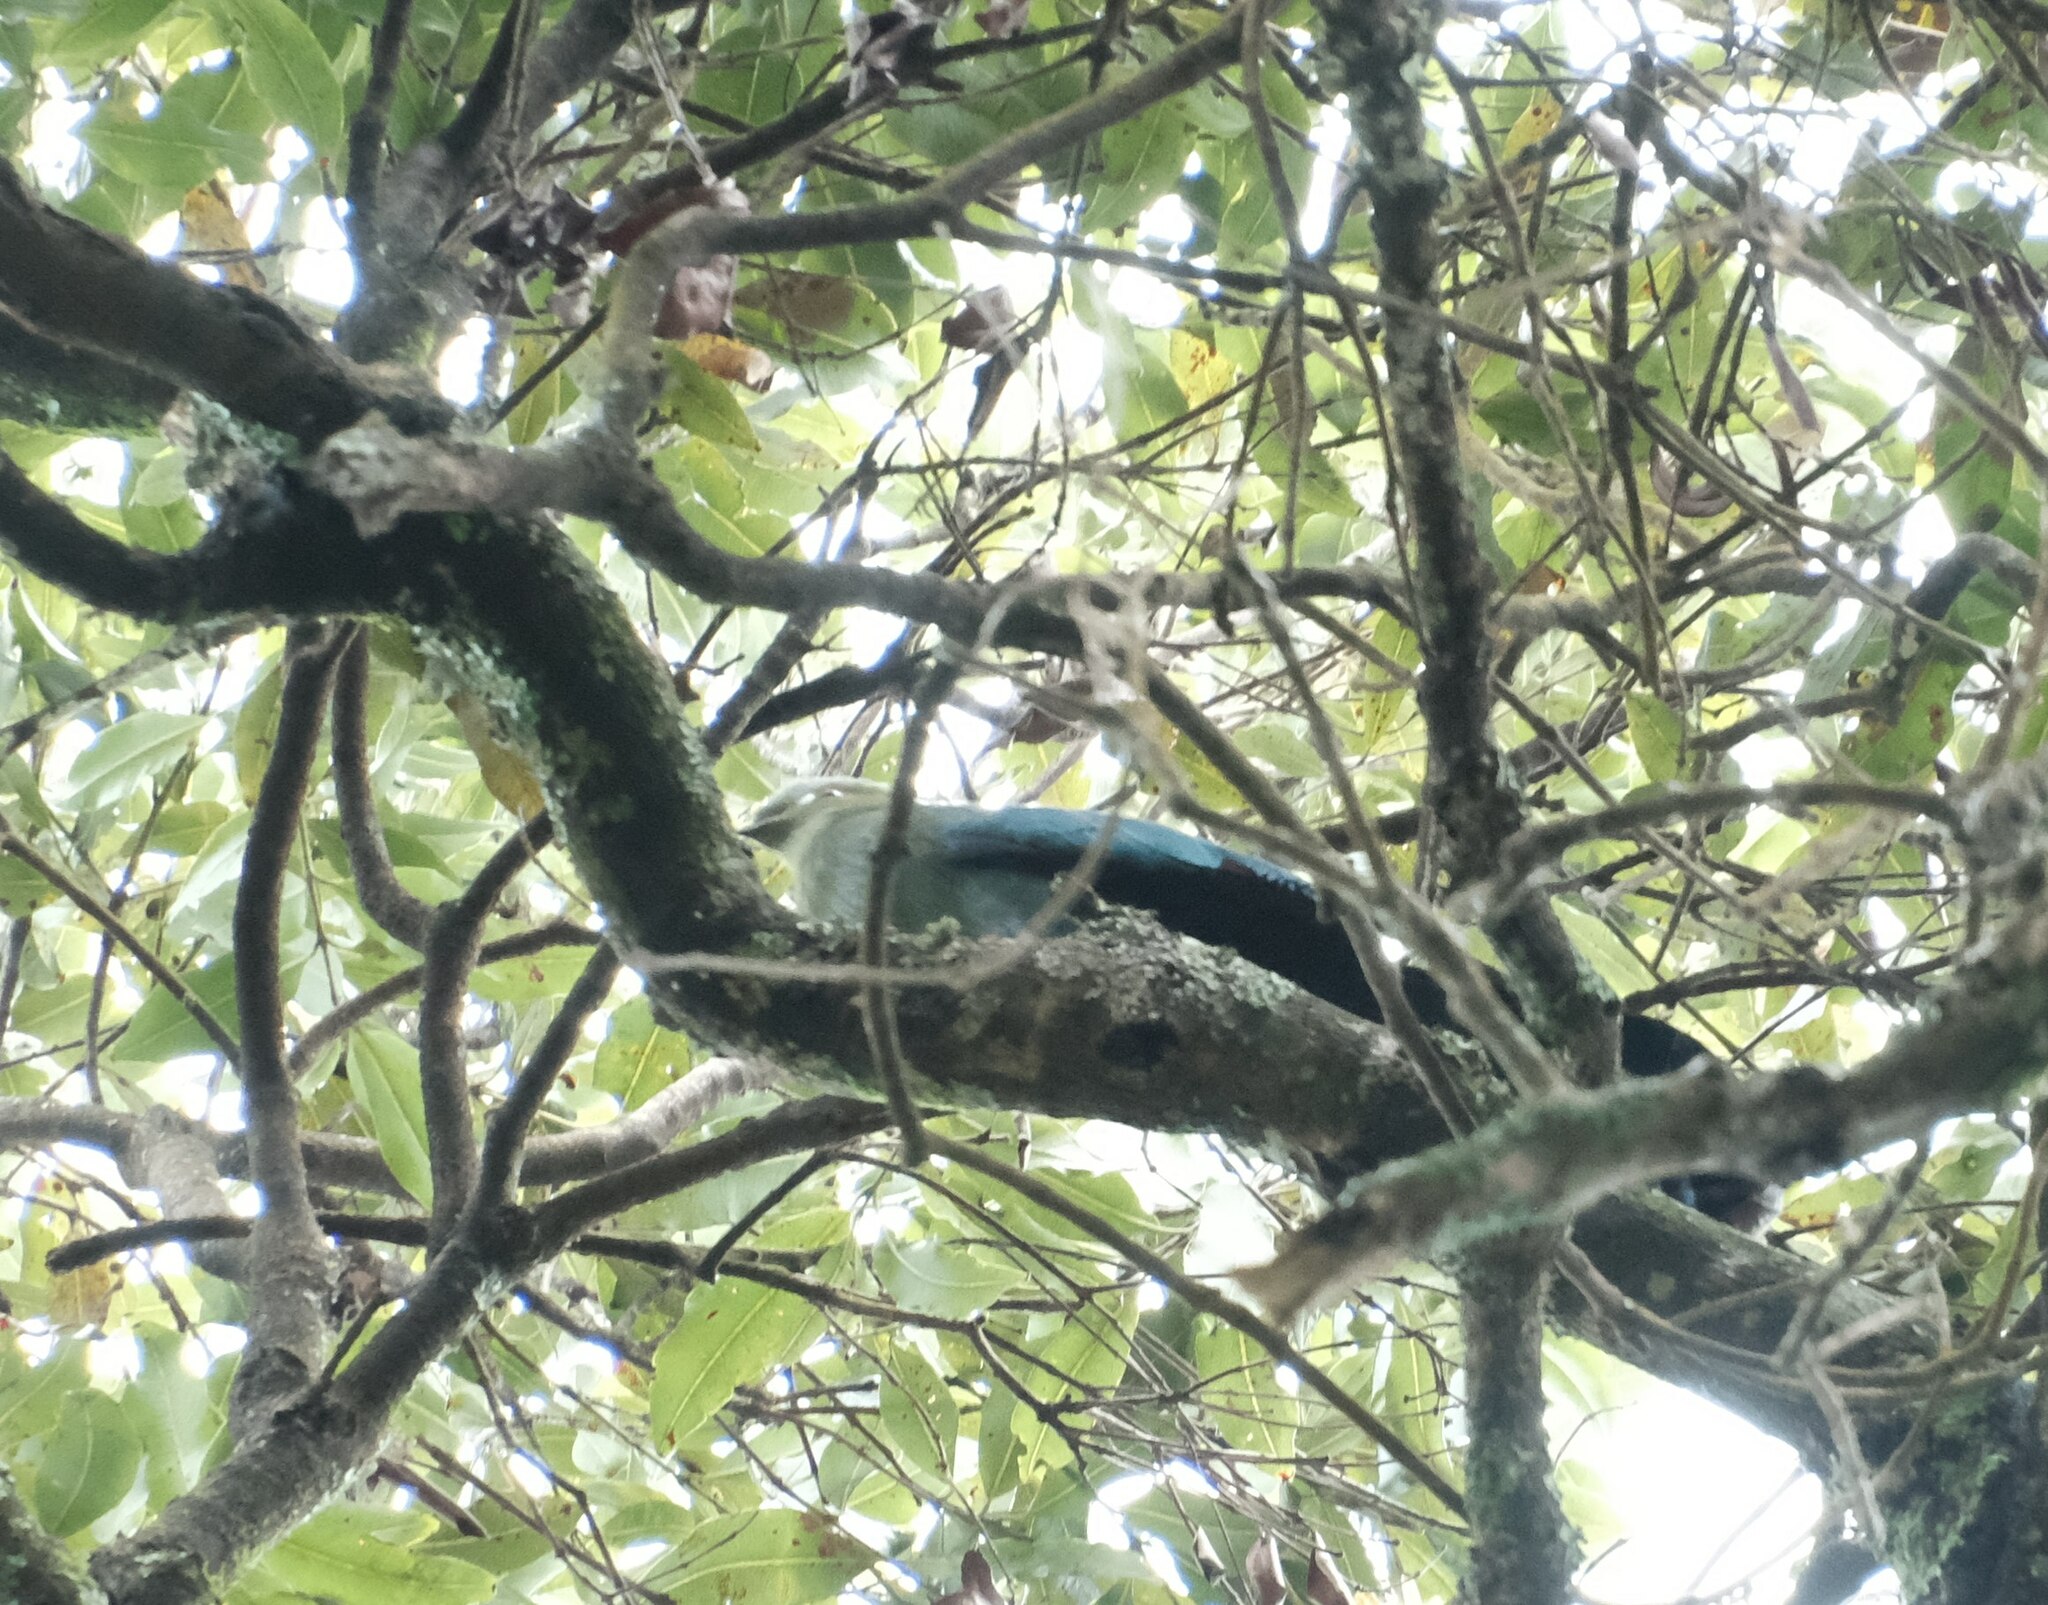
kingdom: Animalia
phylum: Chordata
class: Aves
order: Musophagiformes
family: Musophagidae
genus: Tauraco
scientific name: Tauraco schuettii
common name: Black-billed turaco
